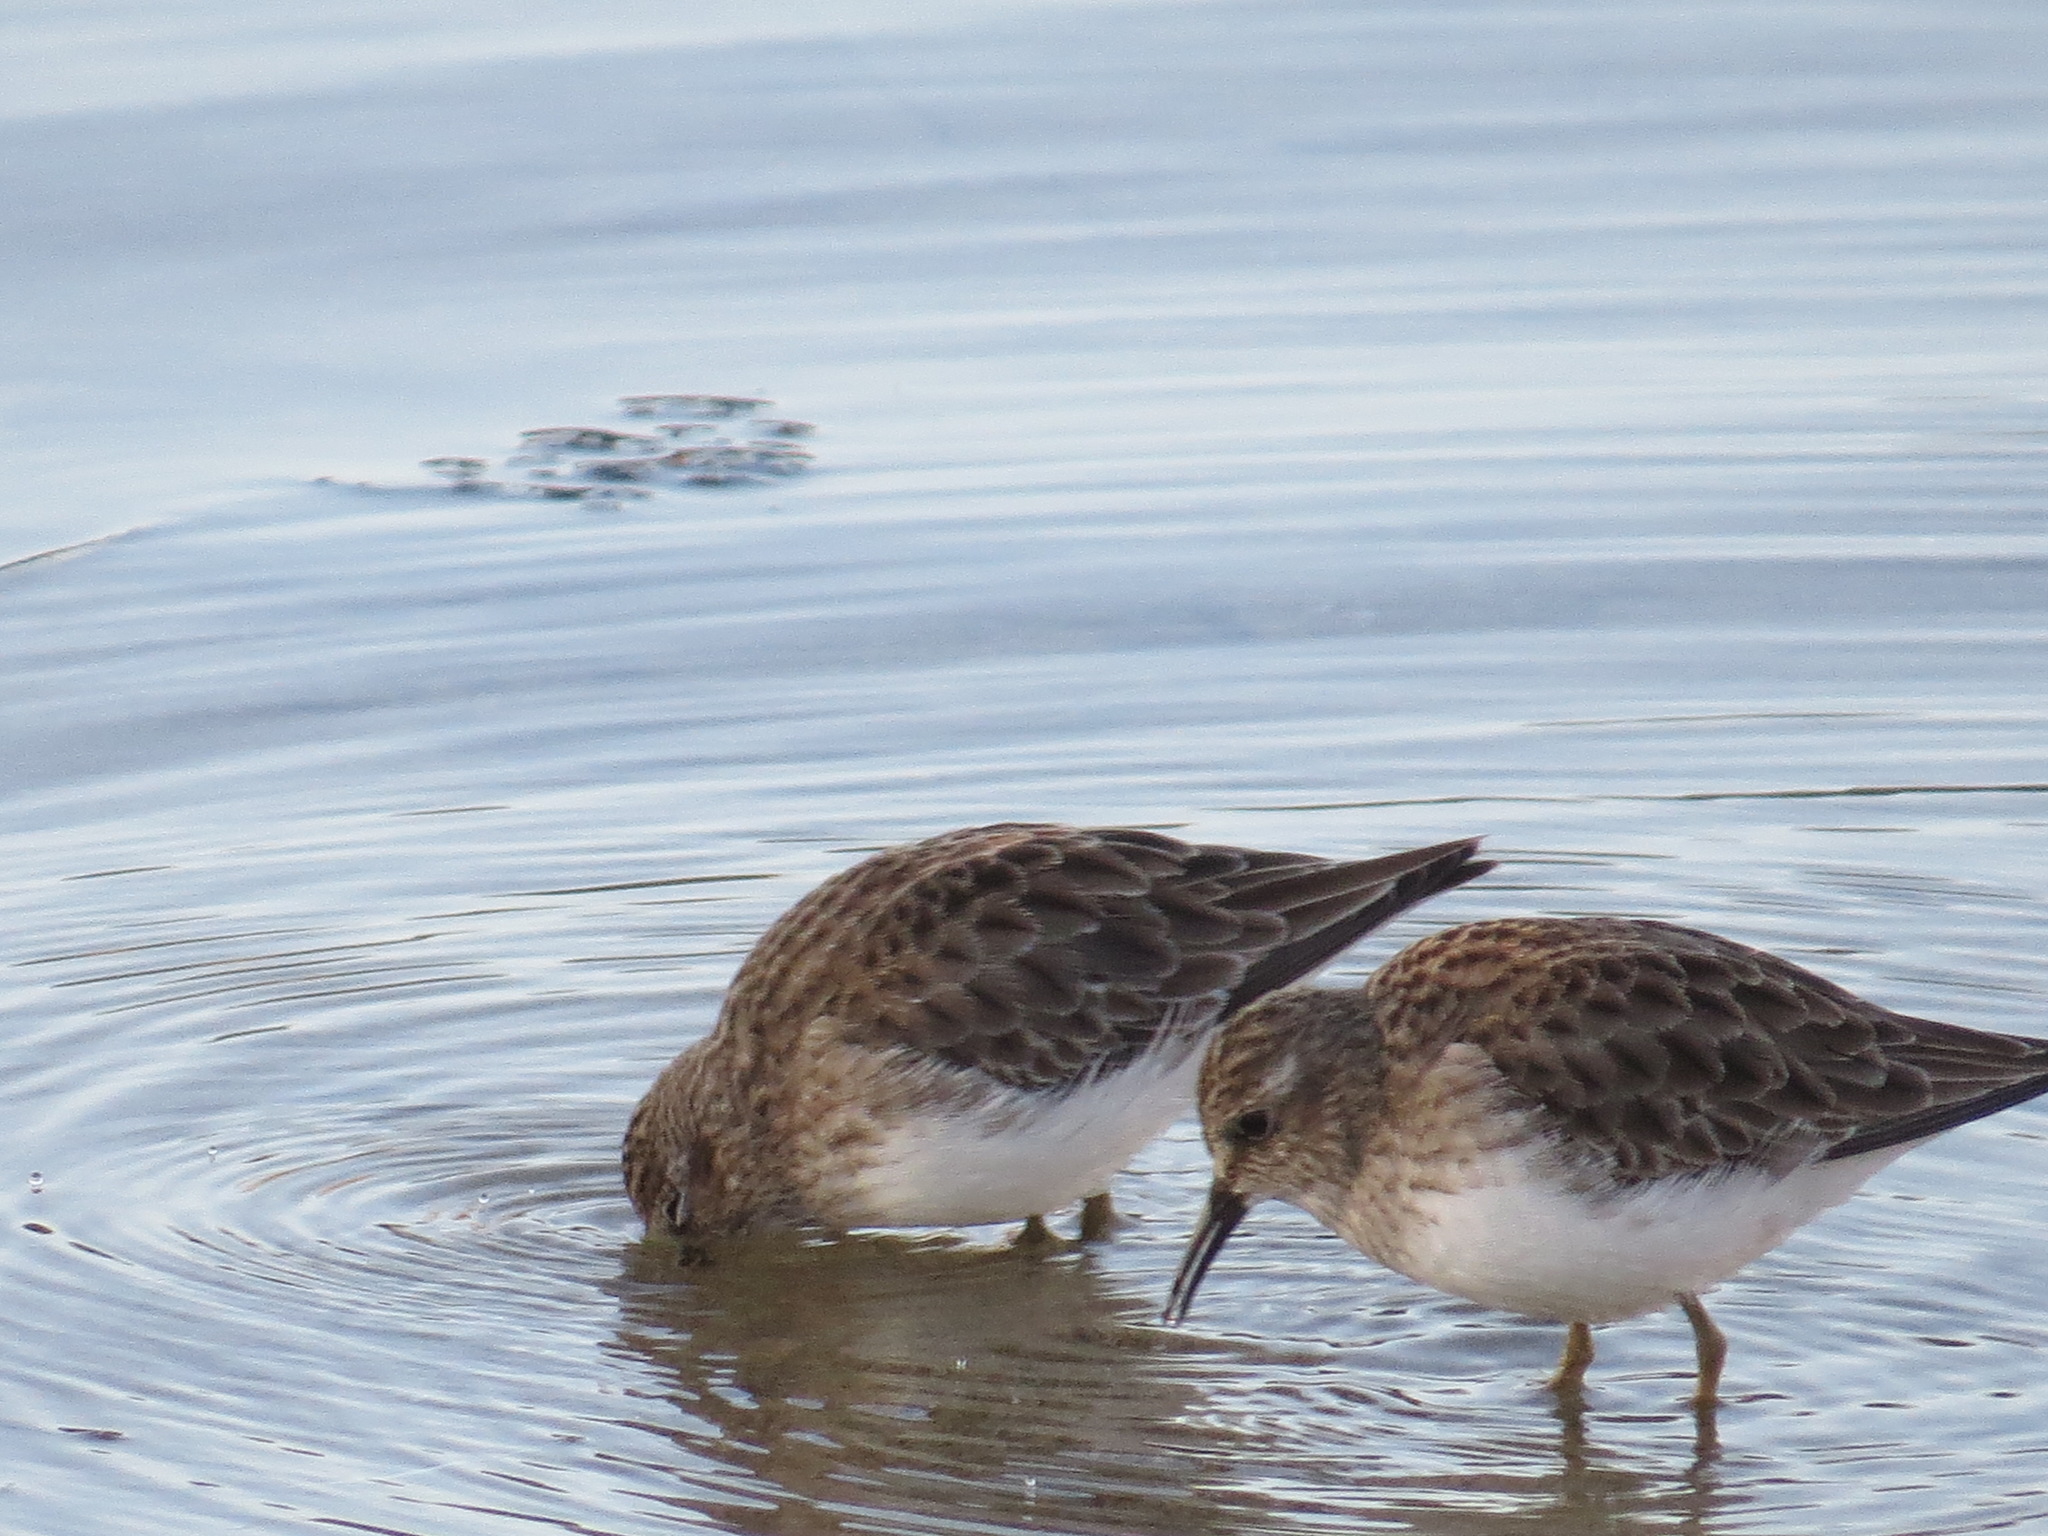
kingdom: Animalia
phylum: Chordata
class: Aves
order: Charadriiformes
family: Scolopacidae
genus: Calidris
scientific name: Calidris minutilla
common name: Least sandpiper
